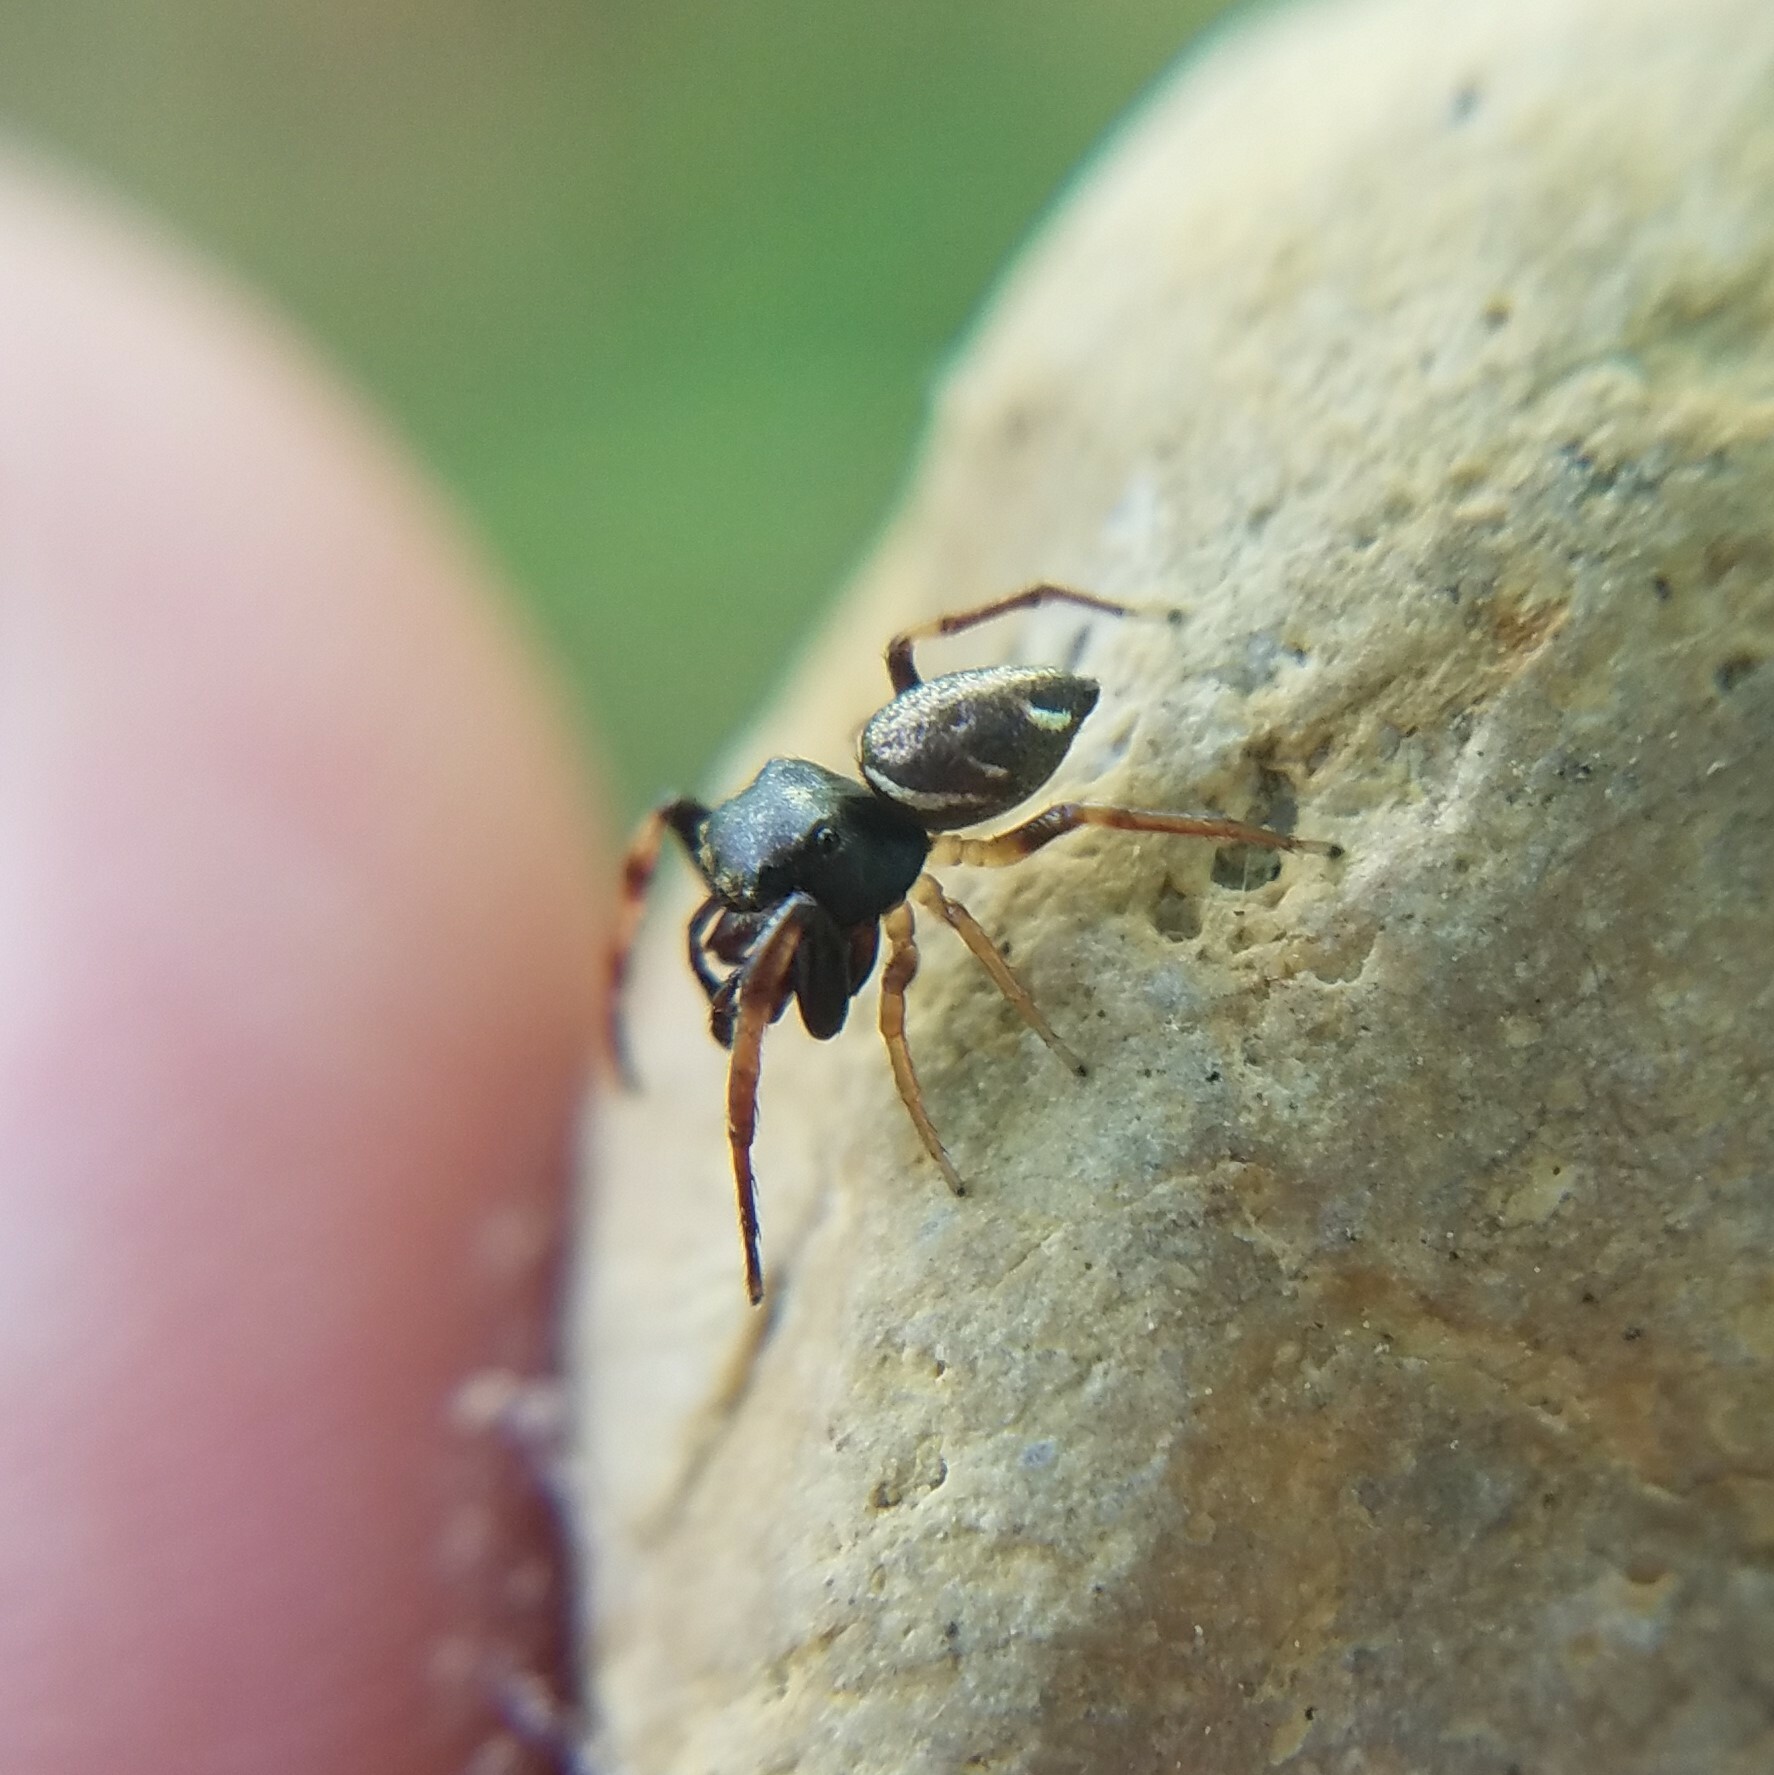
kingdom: Animalia
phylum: Arthropoda
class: Arachnida
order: Araneae
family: Salticidae
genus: Zygoballus
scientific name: Zygoballus rufipes
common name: Jumping spiders
